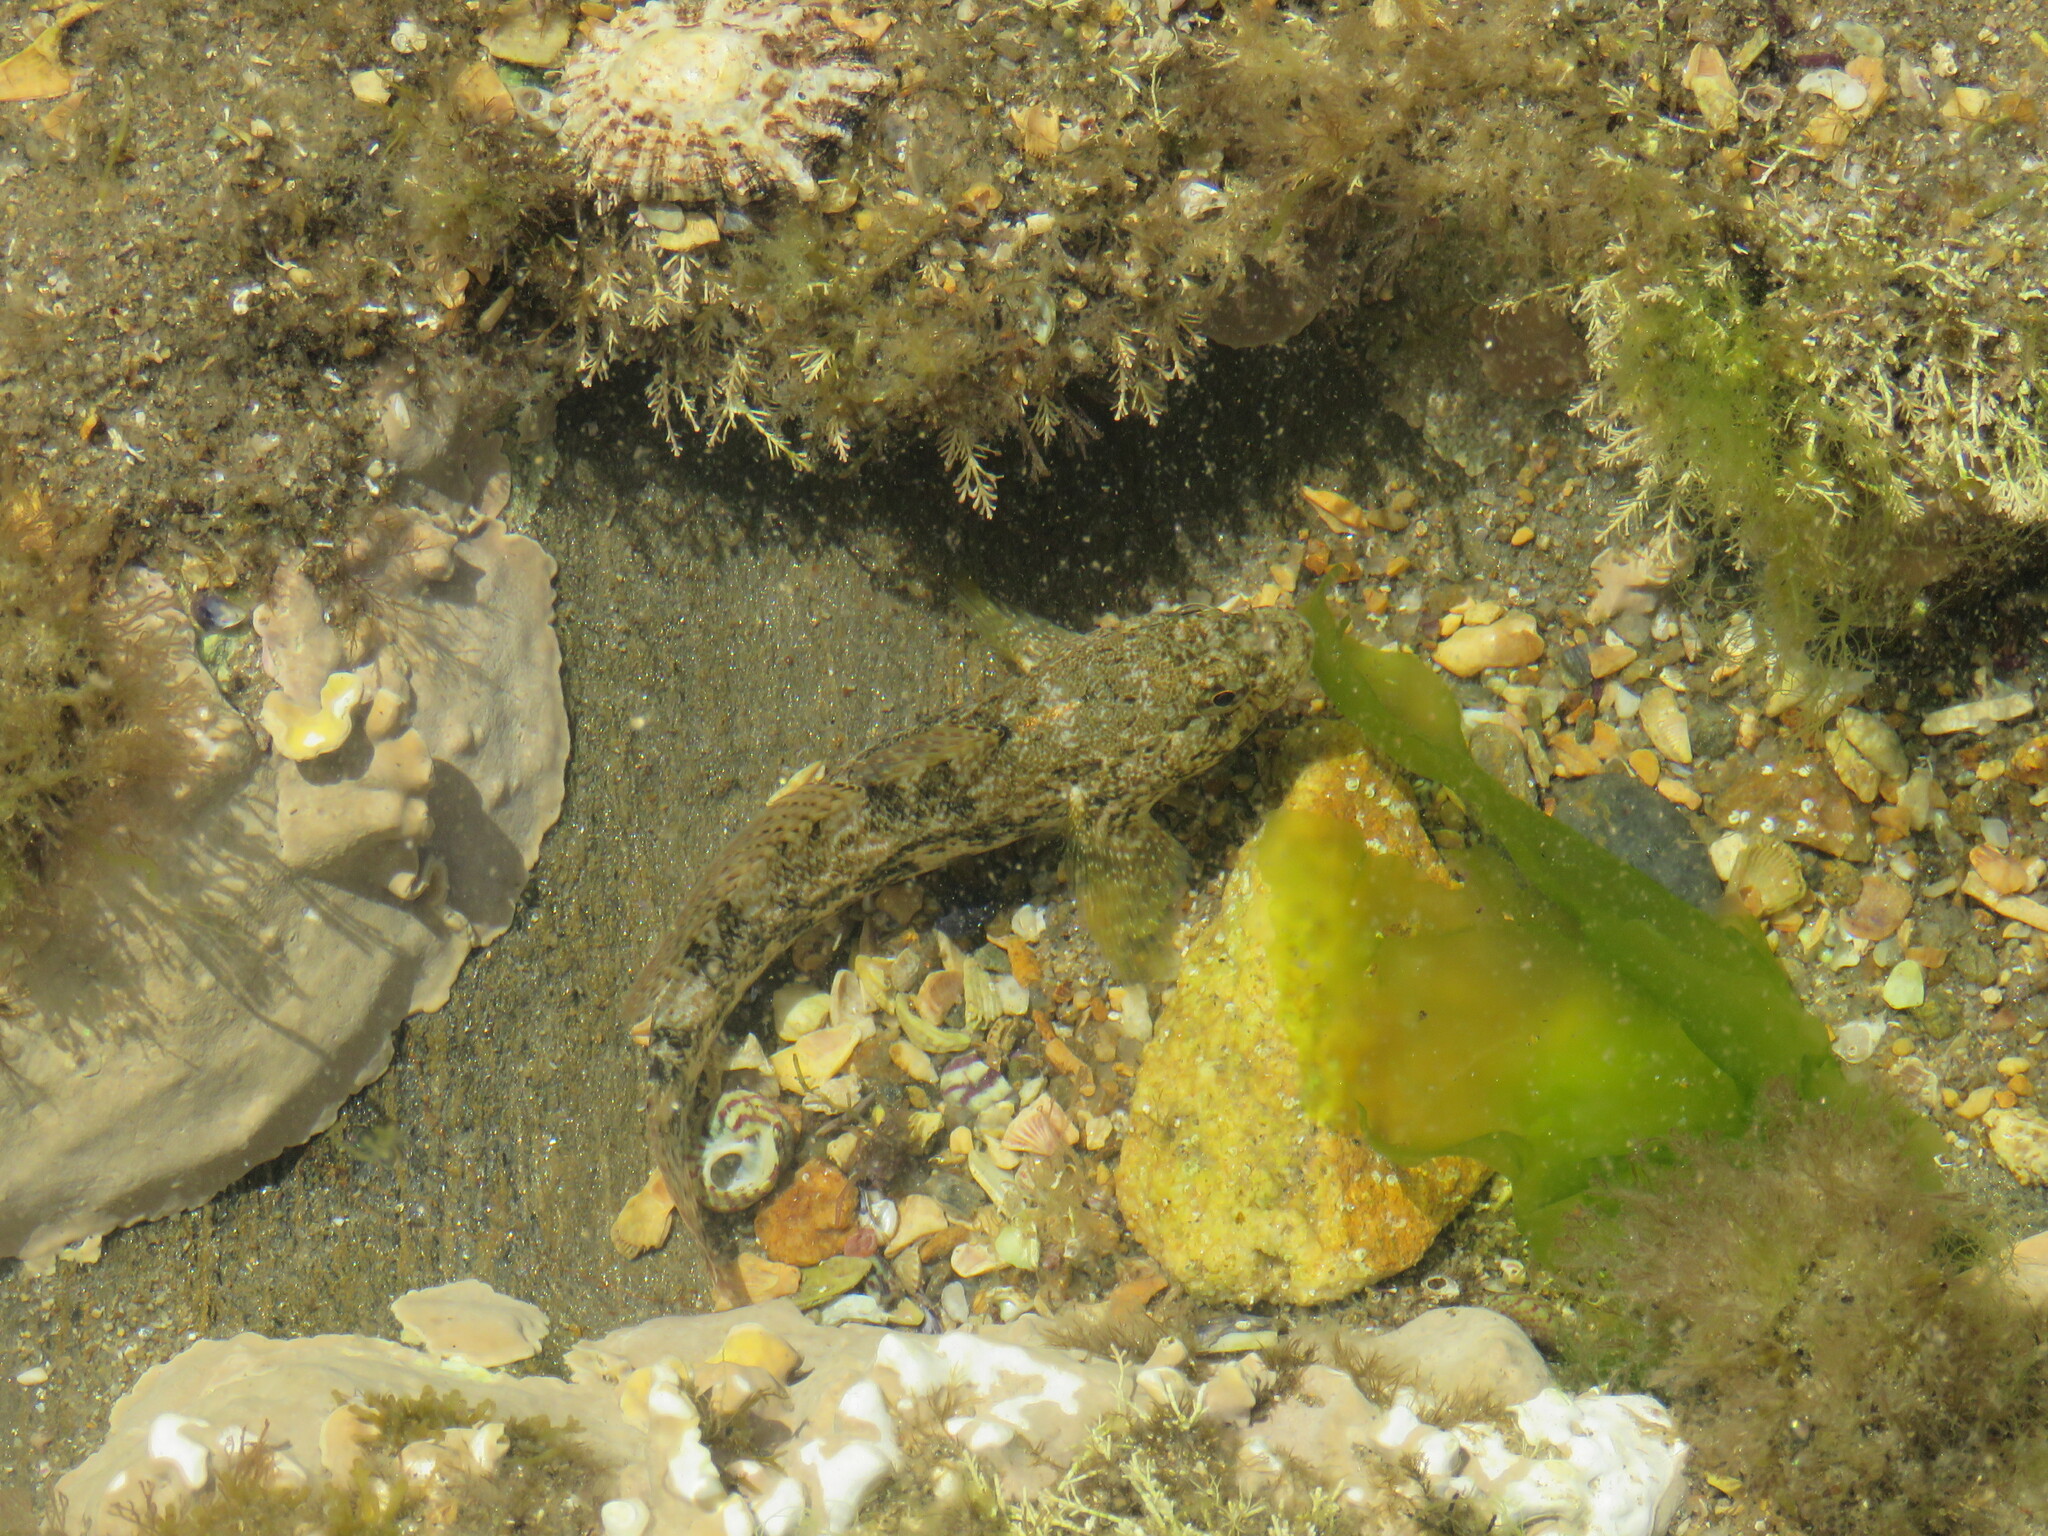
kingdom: Animalia
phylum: Chordata
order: Perciformes
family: Gobiidae
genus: Gobius
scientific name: Gobius cobitis
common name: Giant goby
